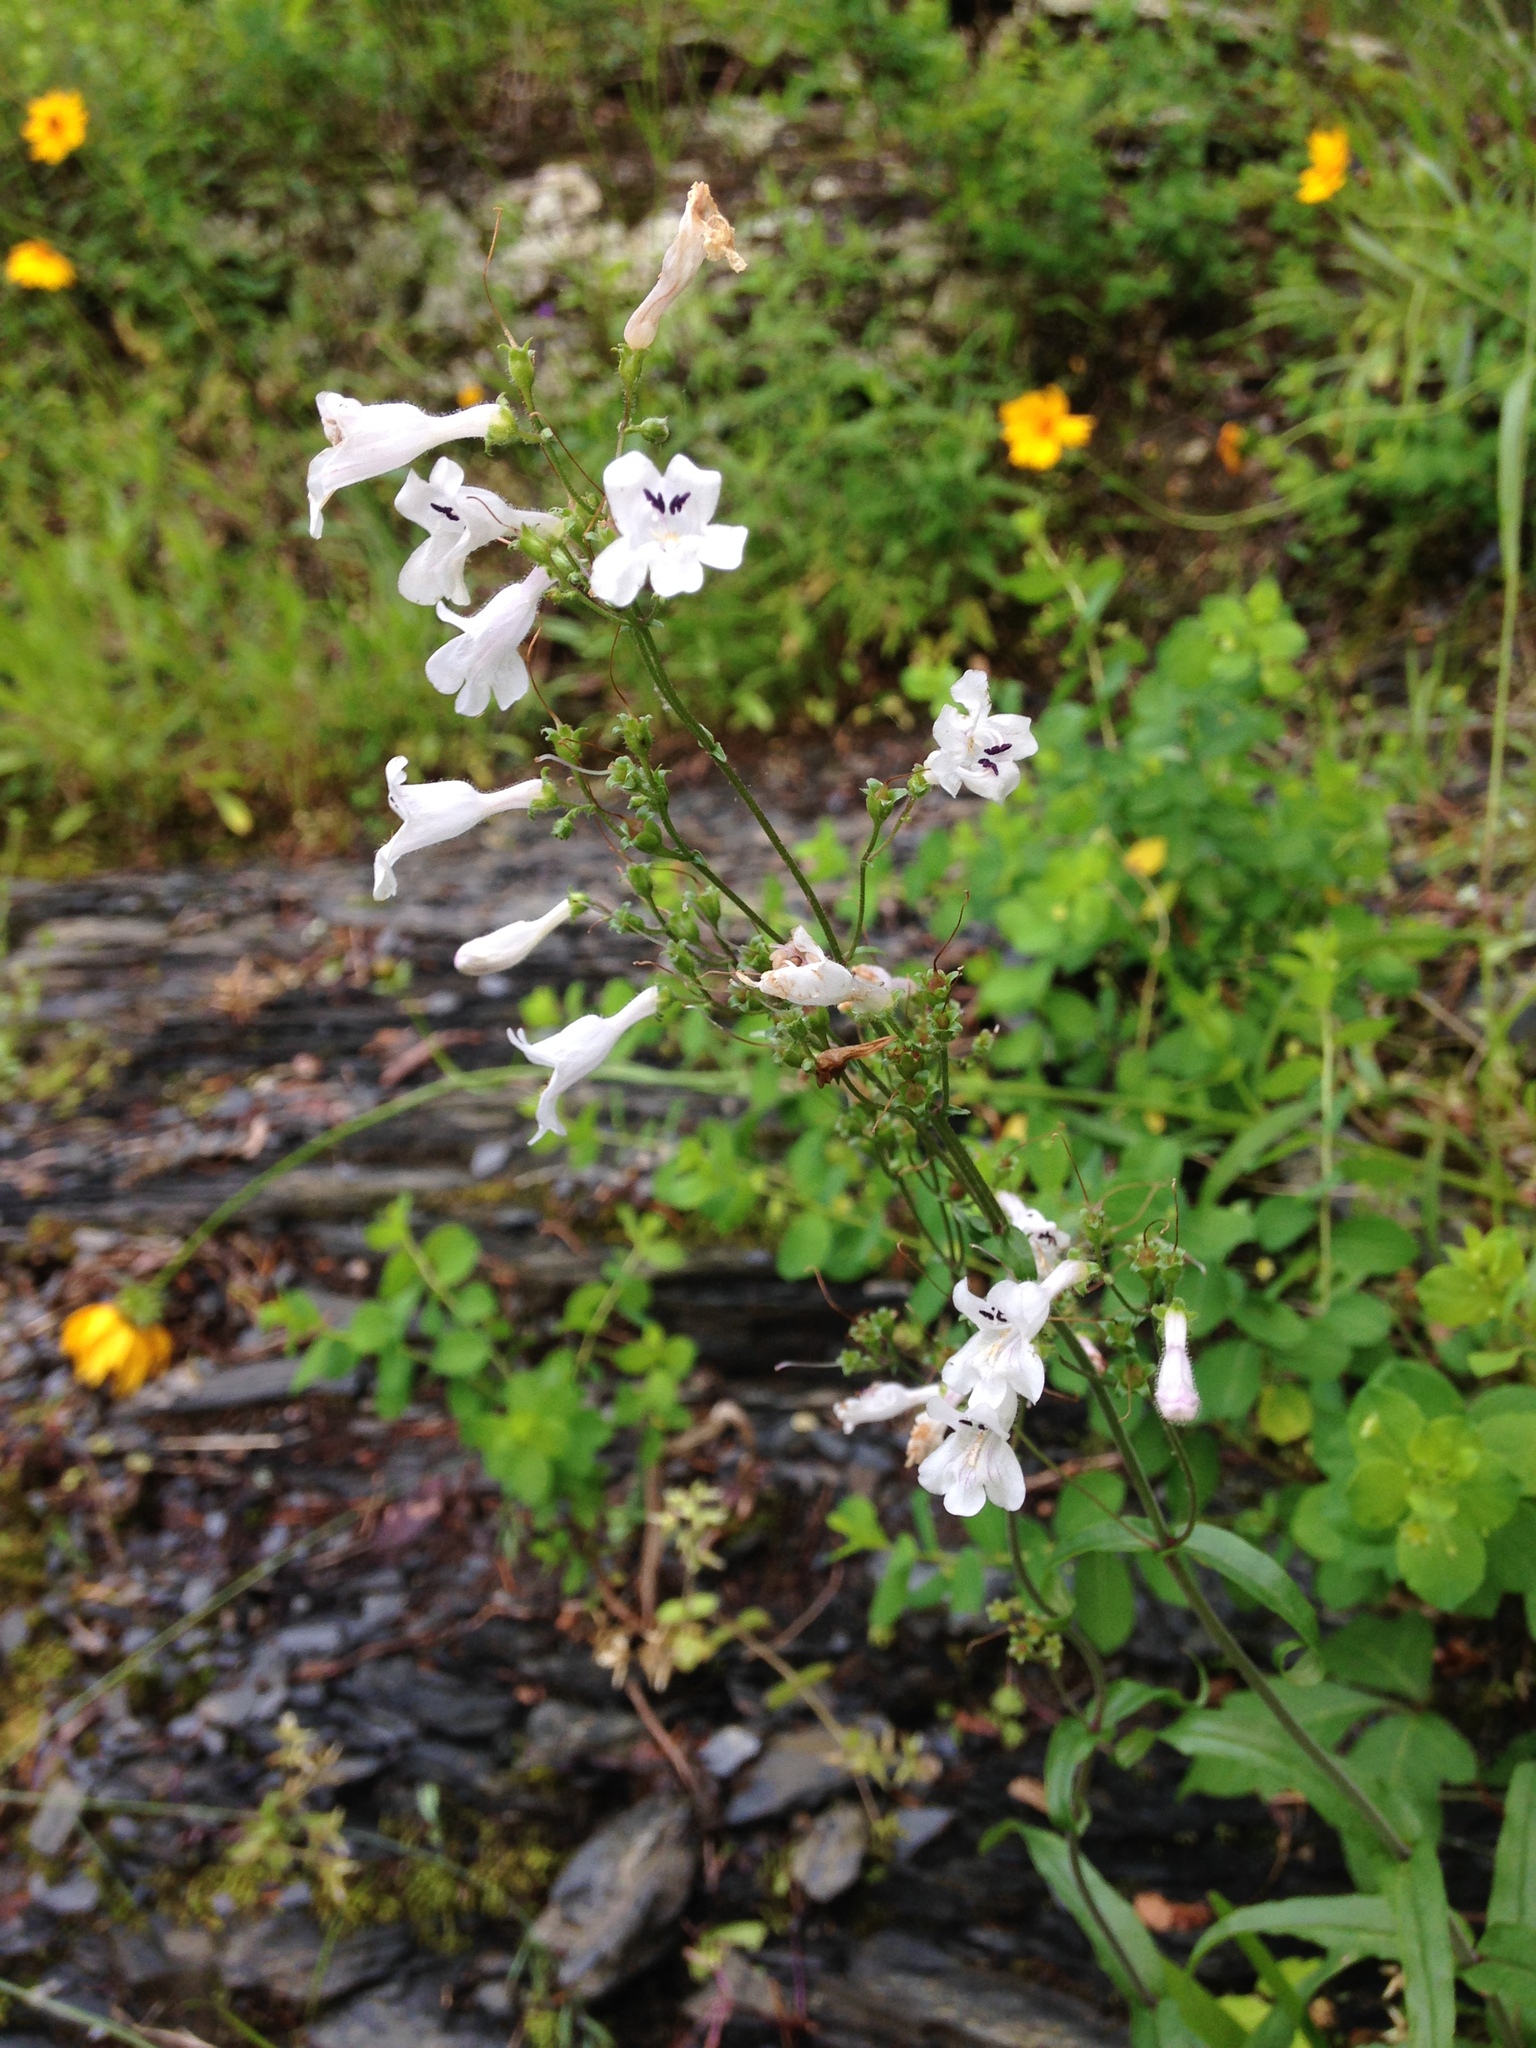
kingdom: Plantae
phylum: Tracheophyta
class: Magnoliopsida
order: Lamiales
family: Plantaginaceae
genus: Penstemon
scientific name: Penstemon arkansanus
